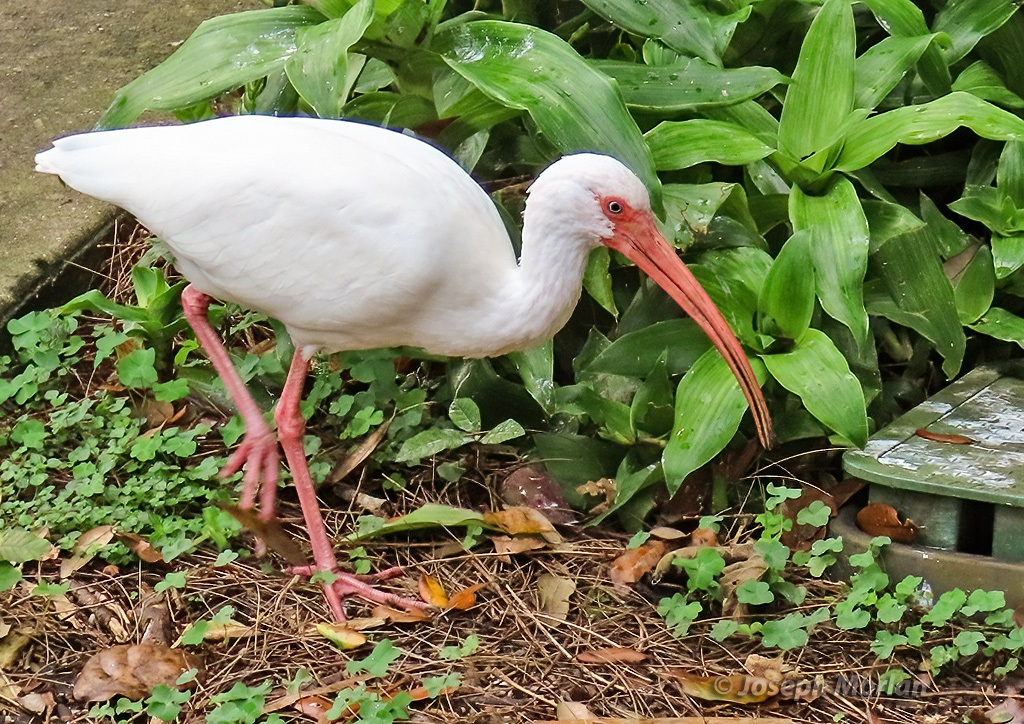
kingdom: Animalia
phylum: Chordata
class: Aves
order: Pelecaniformes
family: Threskiornithidae
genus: Eudocimus
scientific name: Eudocimus albus
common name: White ibis
